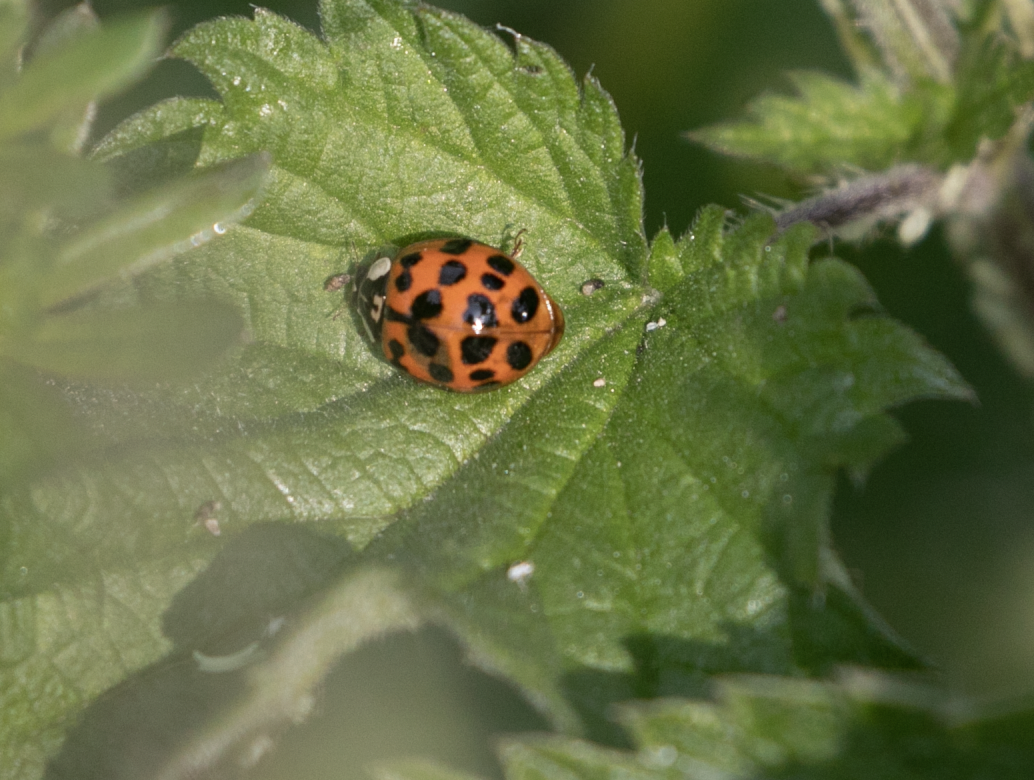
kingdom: Animalia
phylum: Arthropoda
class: Insecta
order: Coleoptera
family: Coccinellidae
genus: Harmonia
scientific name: Harmonia axyridis
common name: Harlequin ladybird
